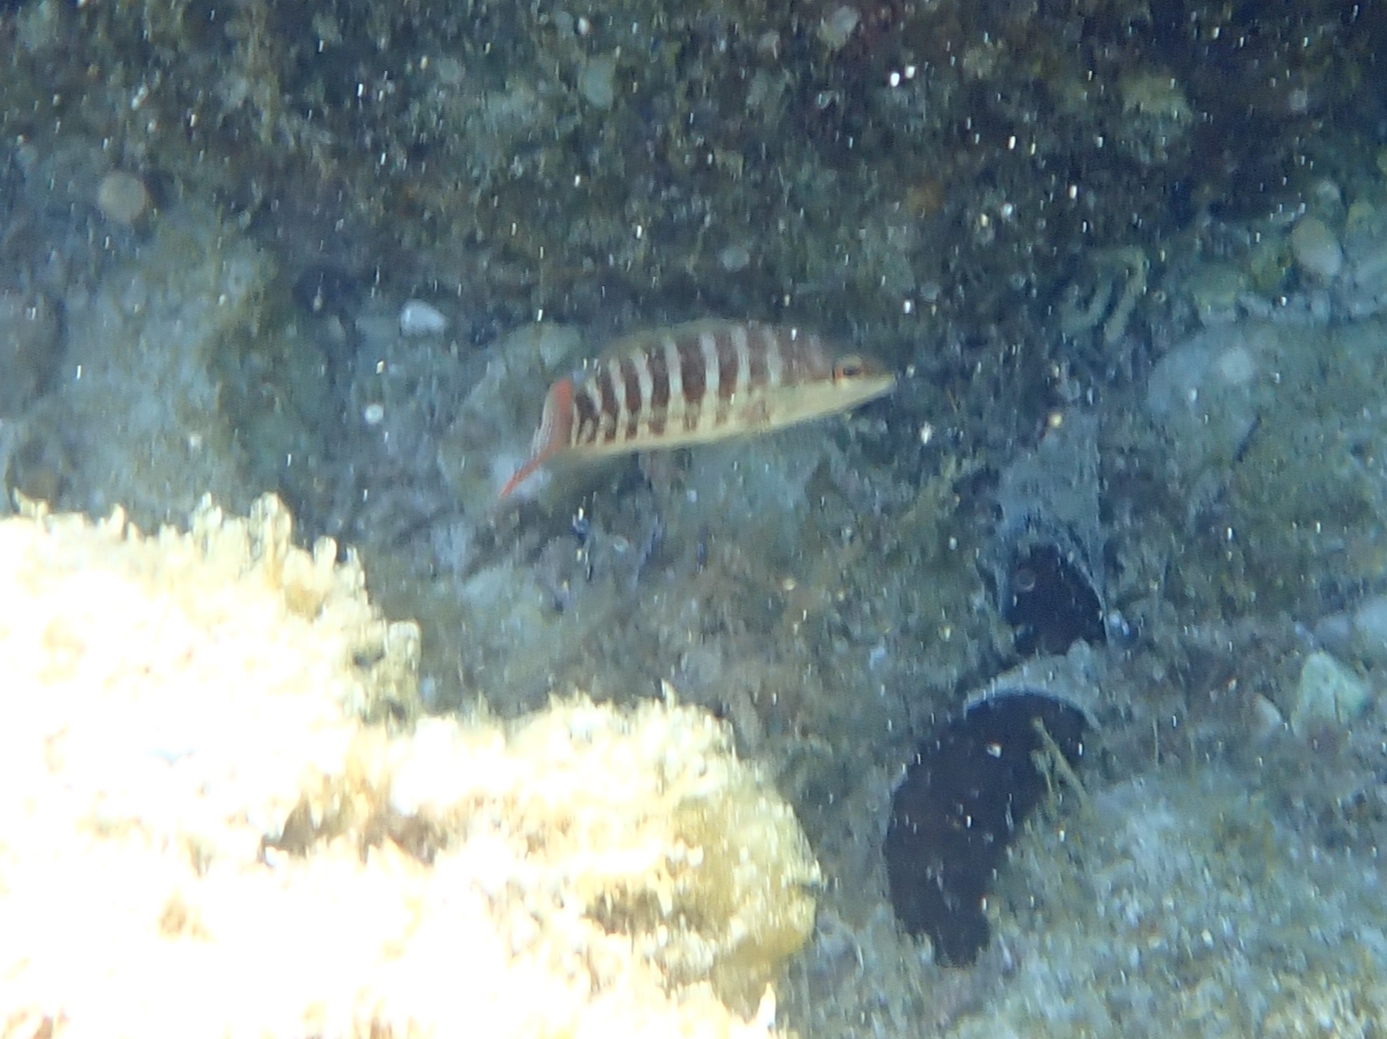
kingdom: Animalia
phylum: Chordata
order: Perciformes
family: Serranidae
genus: Serranus
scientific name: Serranus cabrilla
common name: Comber
